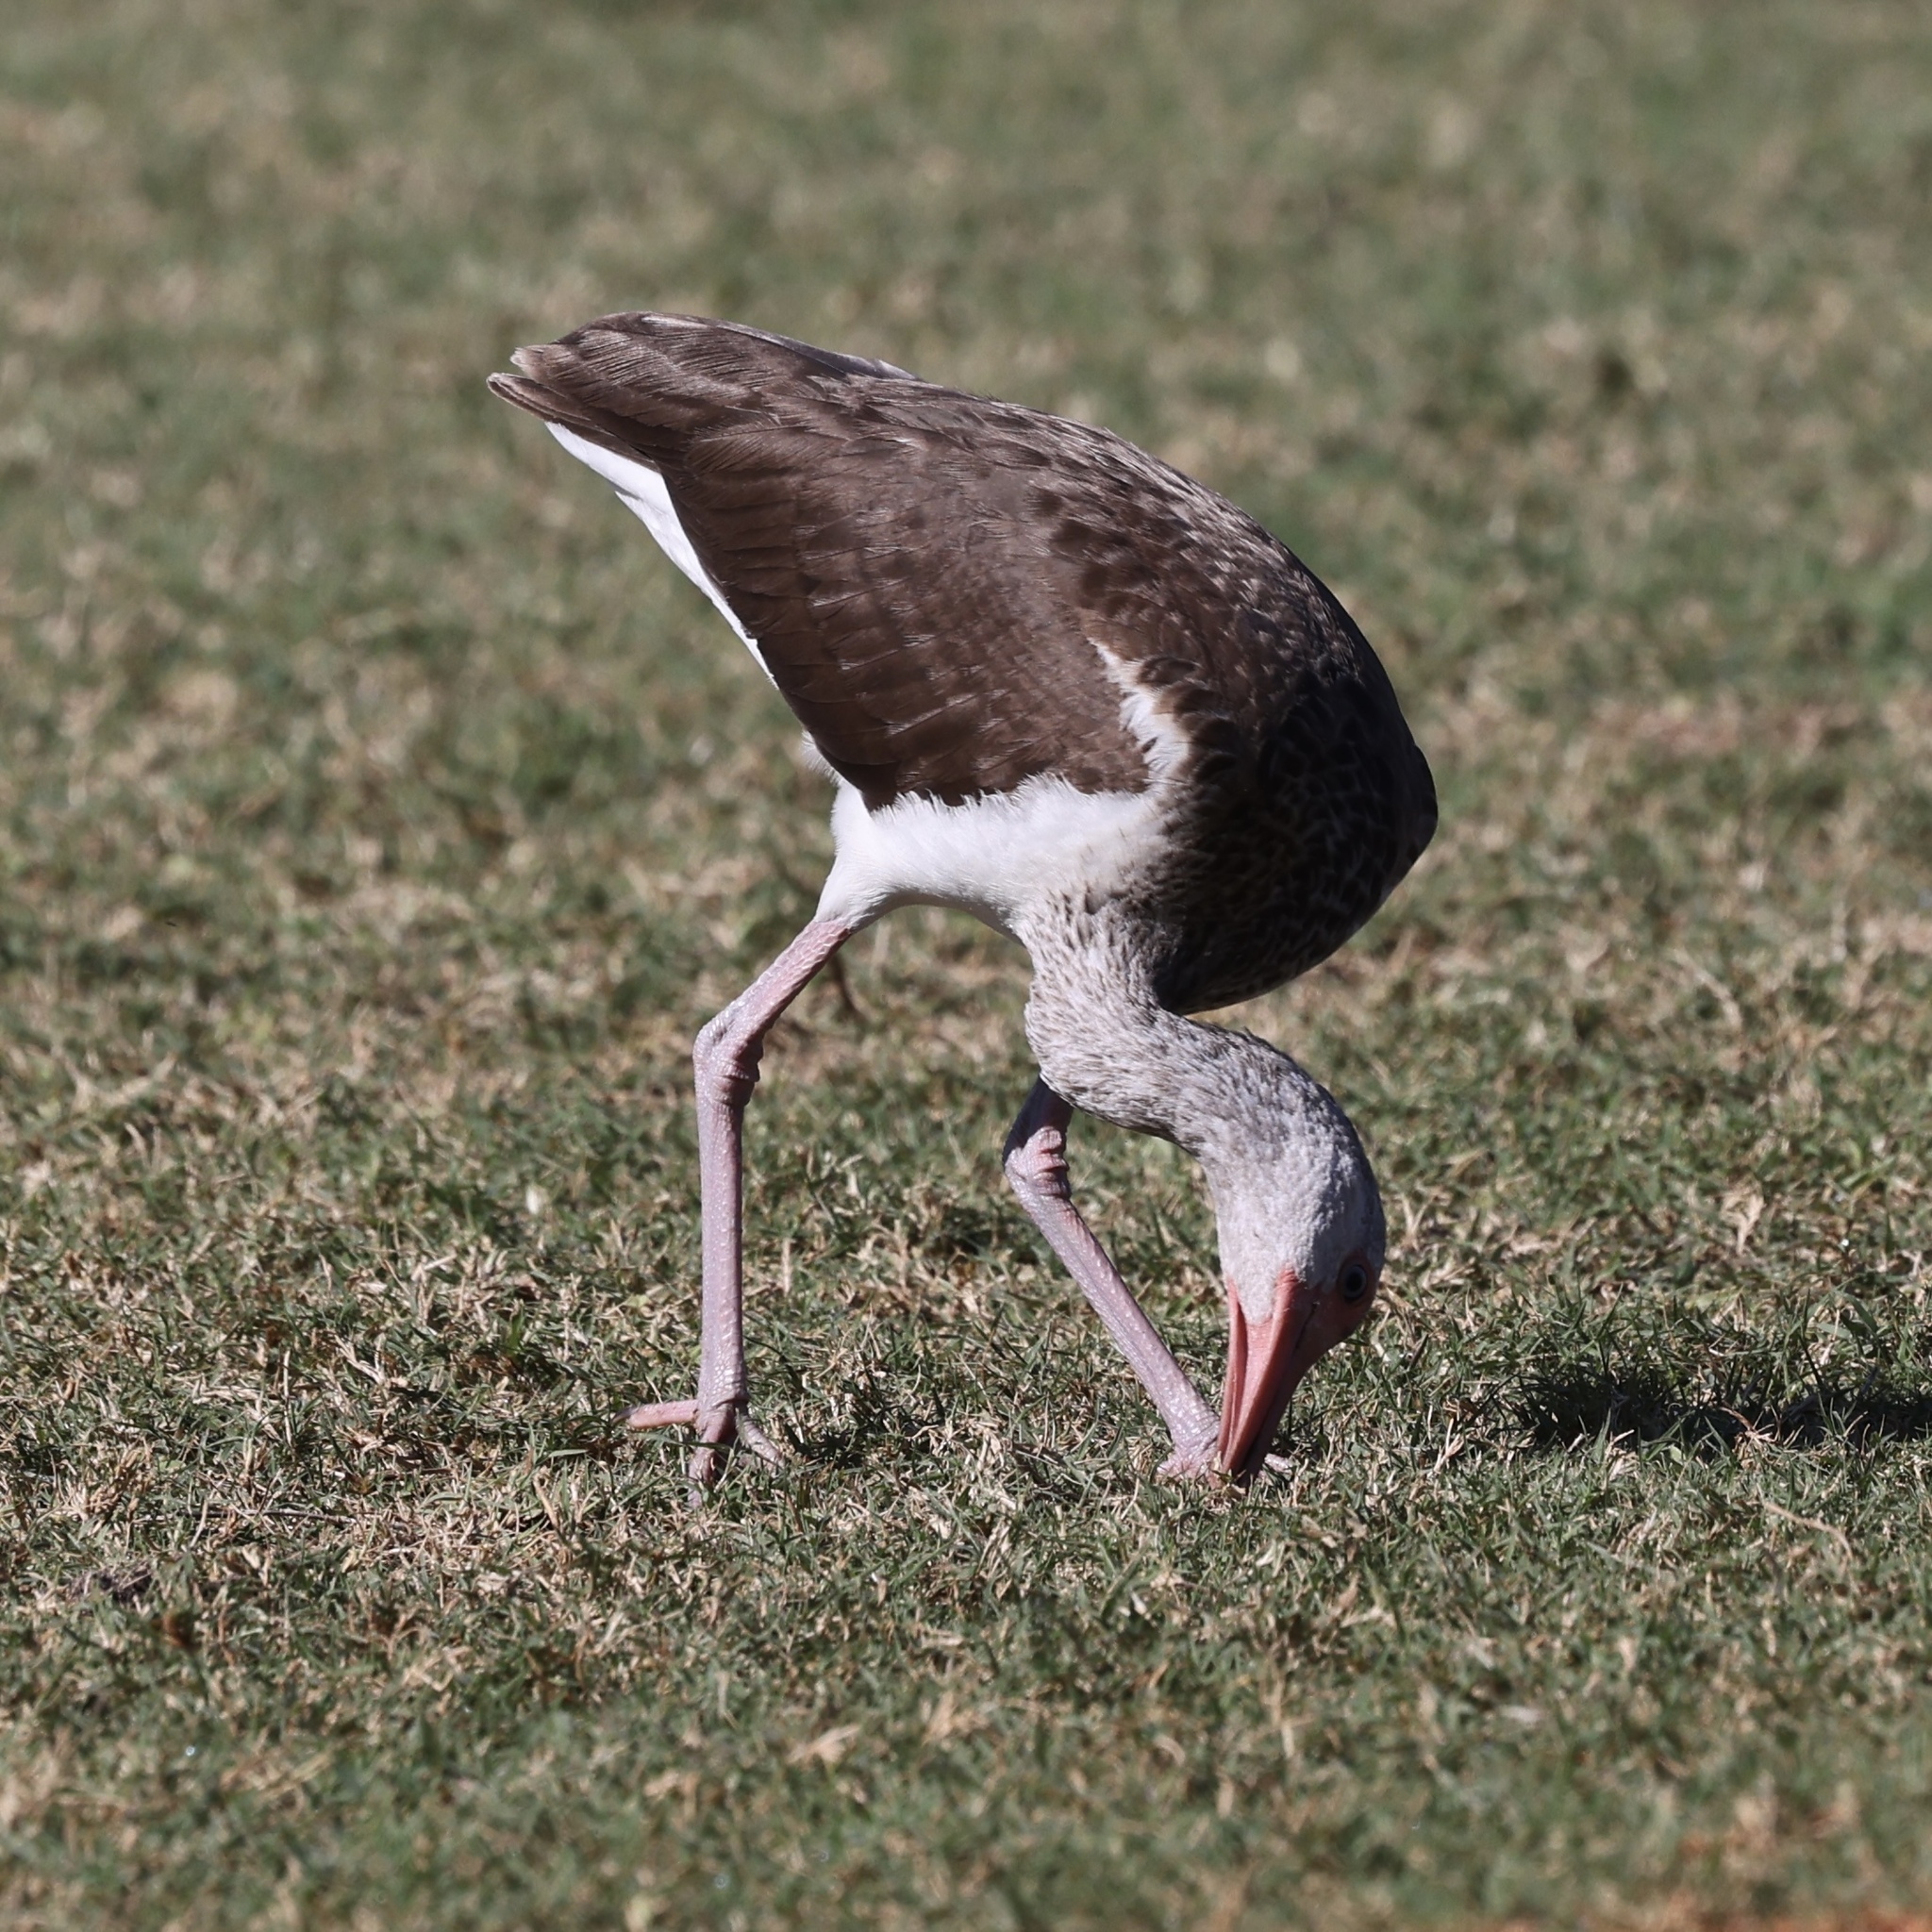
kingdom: Animalia
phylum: Chordata
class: Aves
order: Pelecaniformes
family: Threskiornithidae
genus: Eudocimus
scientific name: Eudocimus albus
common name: White ibis
